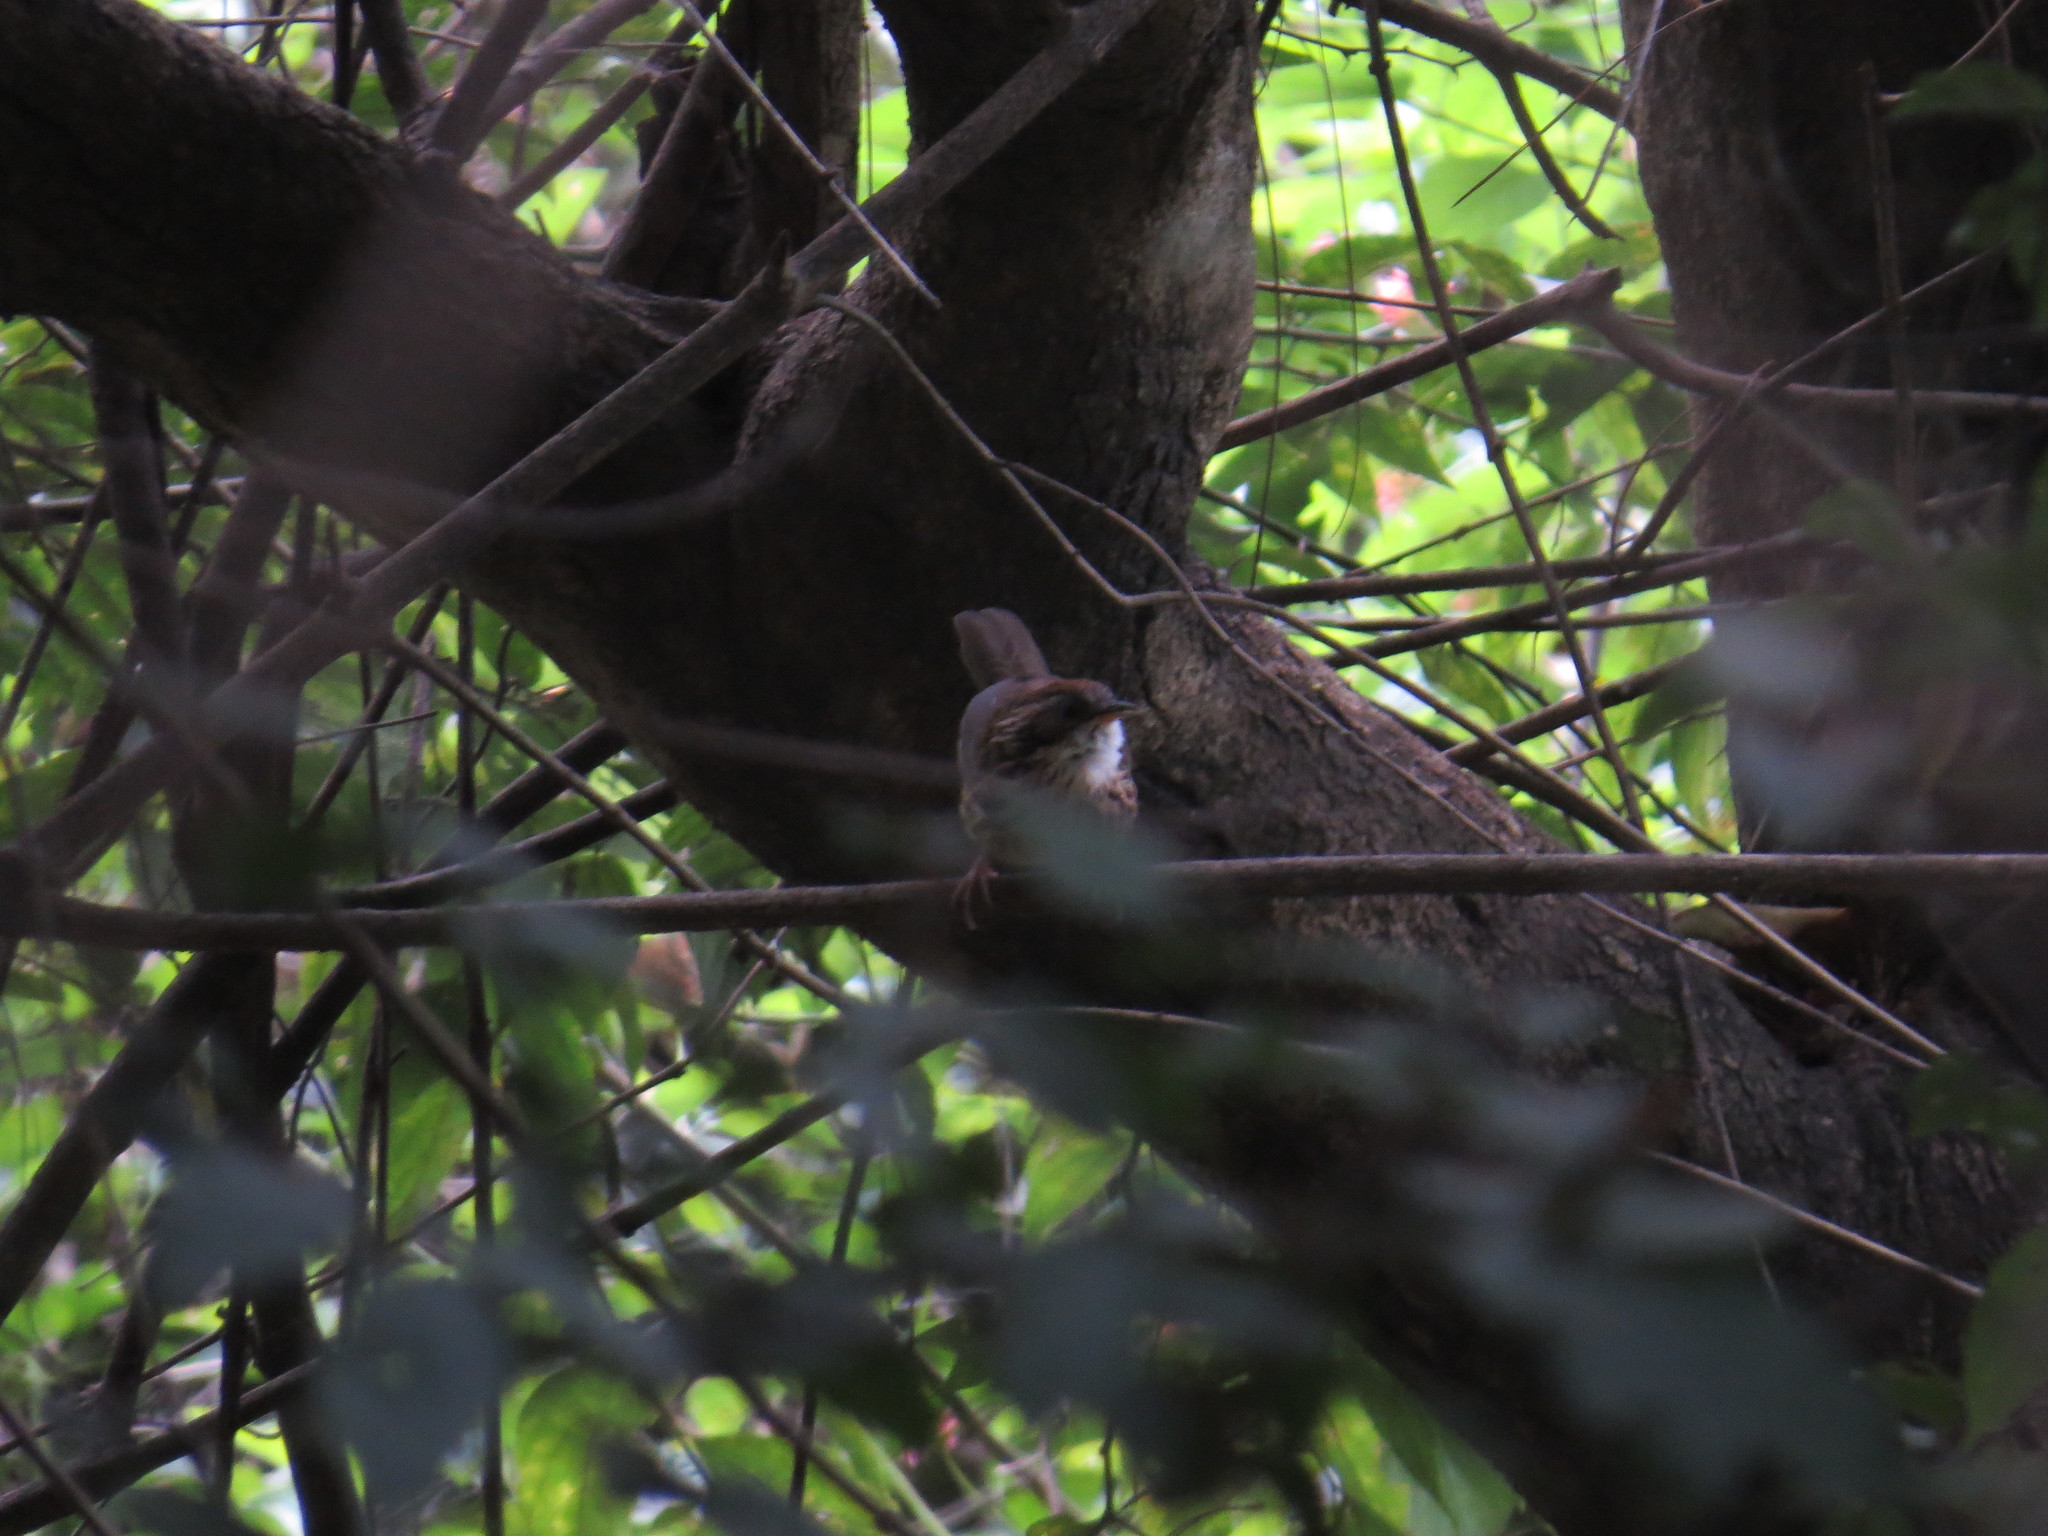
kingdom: Animalia
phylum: Chordata
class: Aves
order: Passeriformes
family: Pellorneidae
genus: Pellorneum
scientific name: Pellorneum ruficeps
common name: Puff-throated babbler
